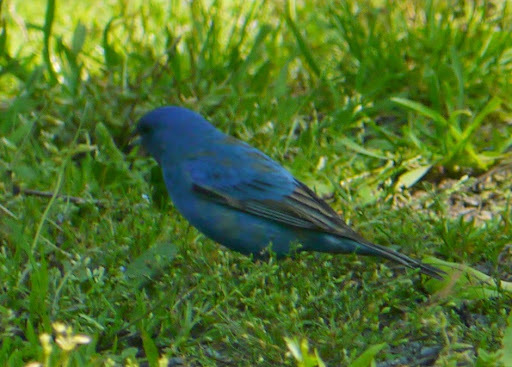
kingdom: Animalia
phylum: Chordata
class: Aves
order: Passeriformes
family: Cardinalidae
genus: Passerina
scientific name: Passerina cyanea
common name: Indigo bunting
